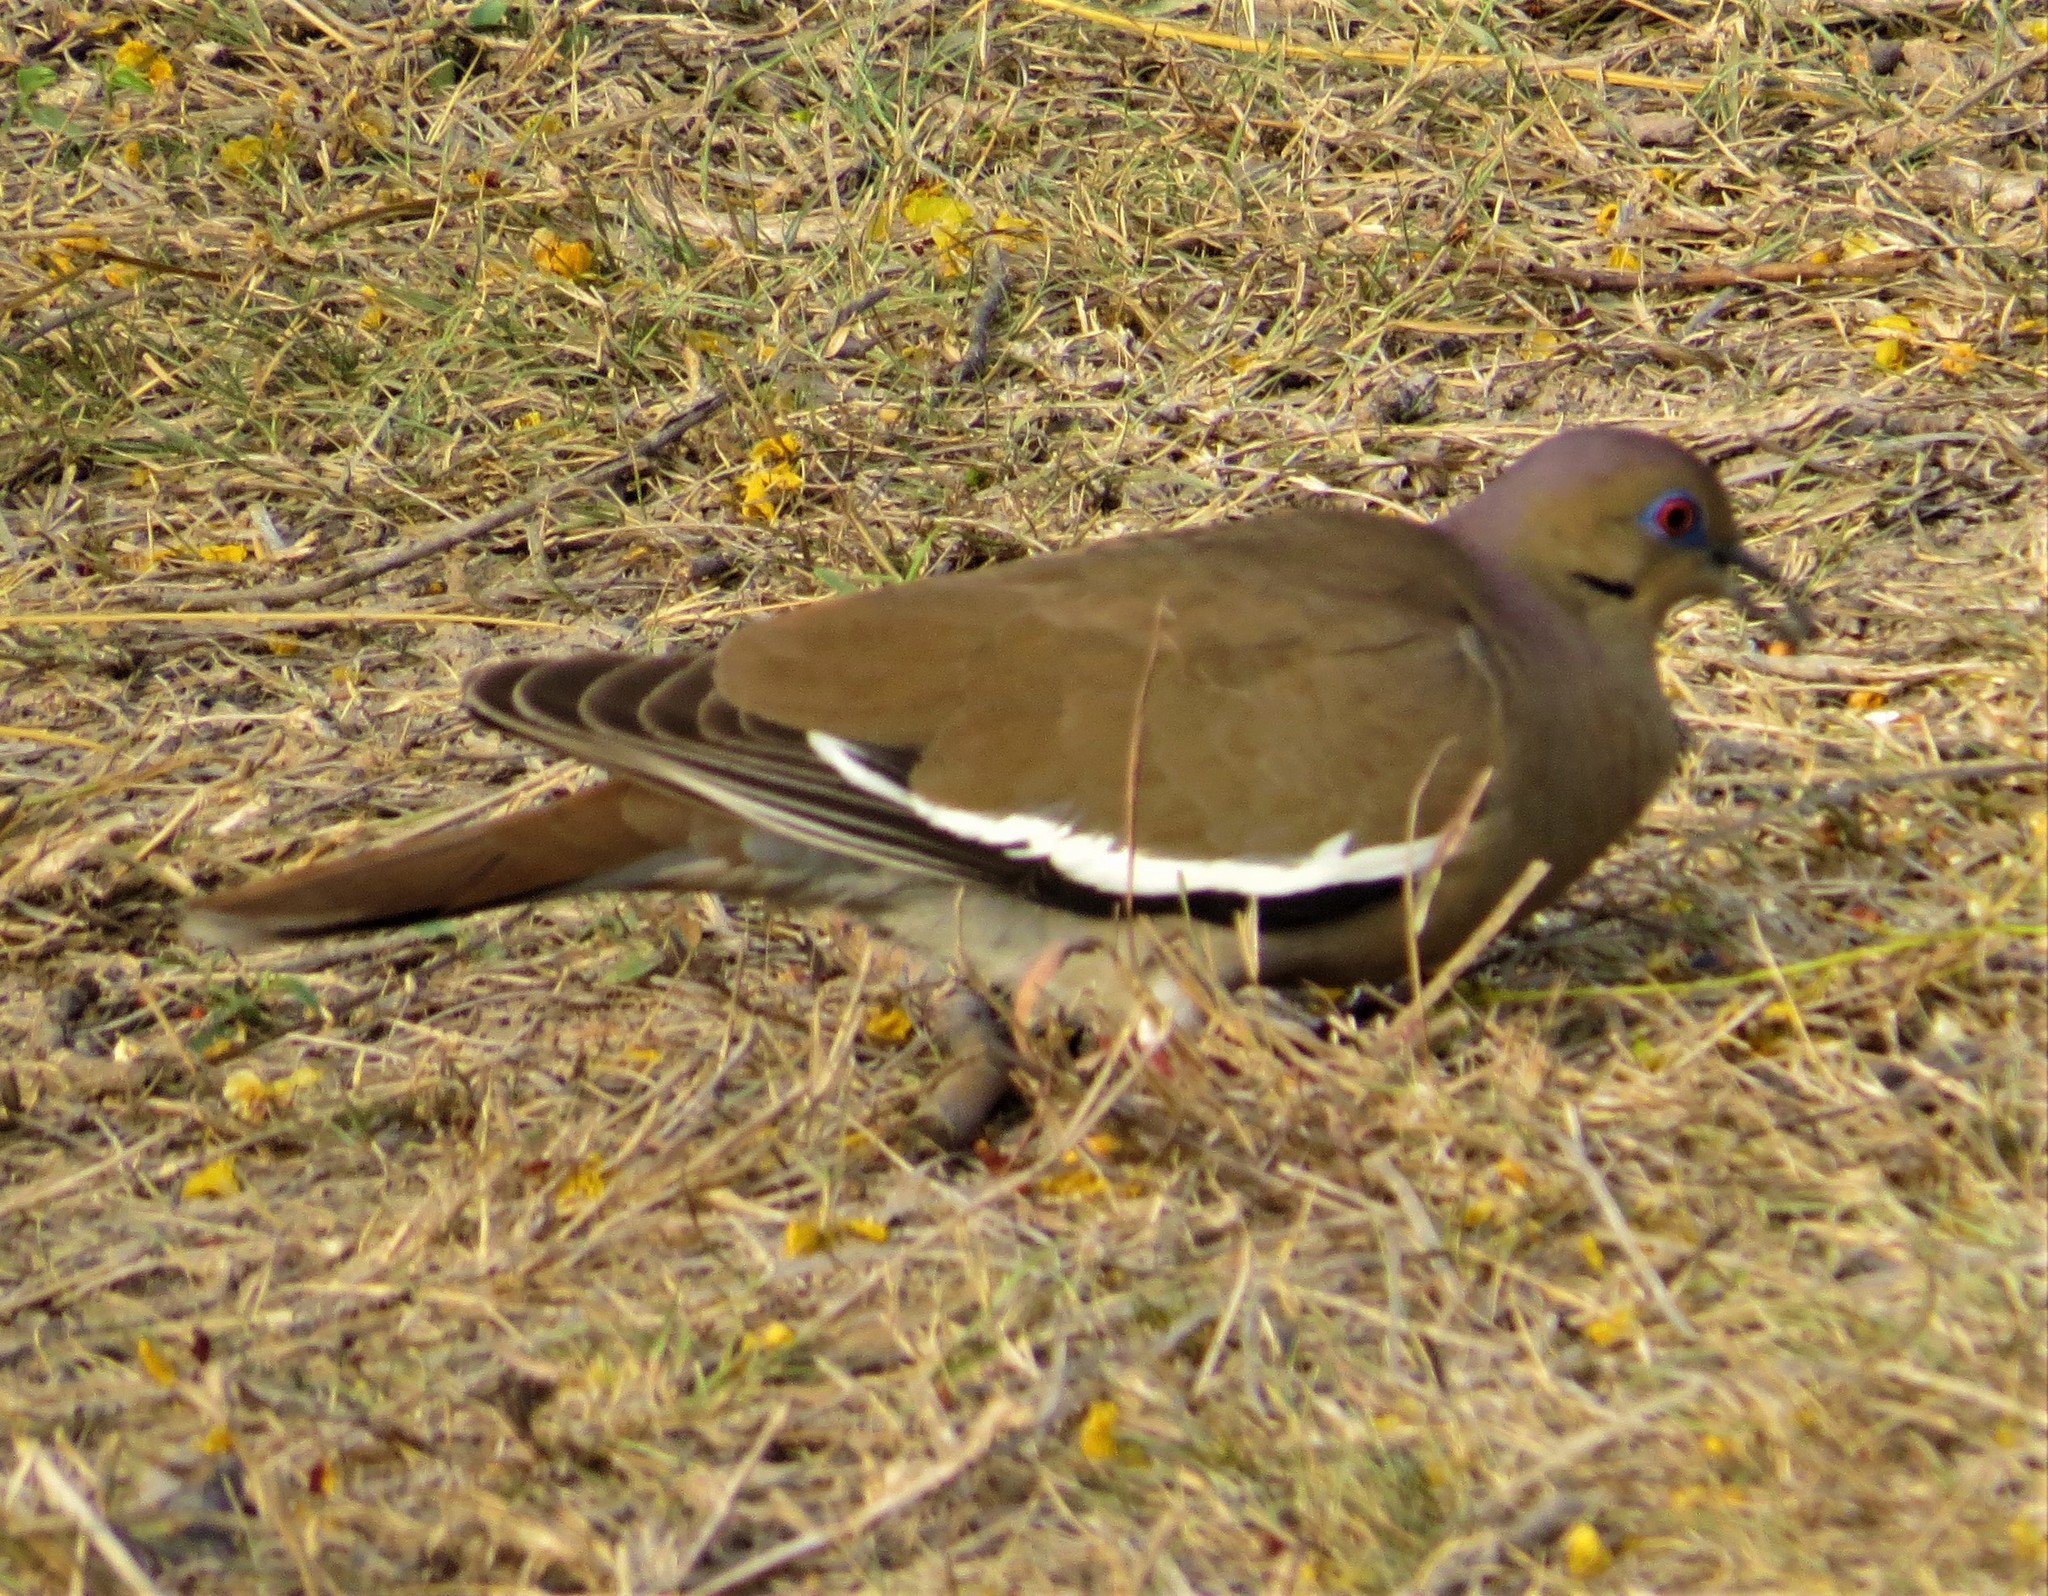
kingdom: Animalia
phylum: Chordata
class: Aves
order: Columbiformes
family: Columbidae
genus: Zenaida
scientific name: Zenaida asiatica
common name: White-winged dove
